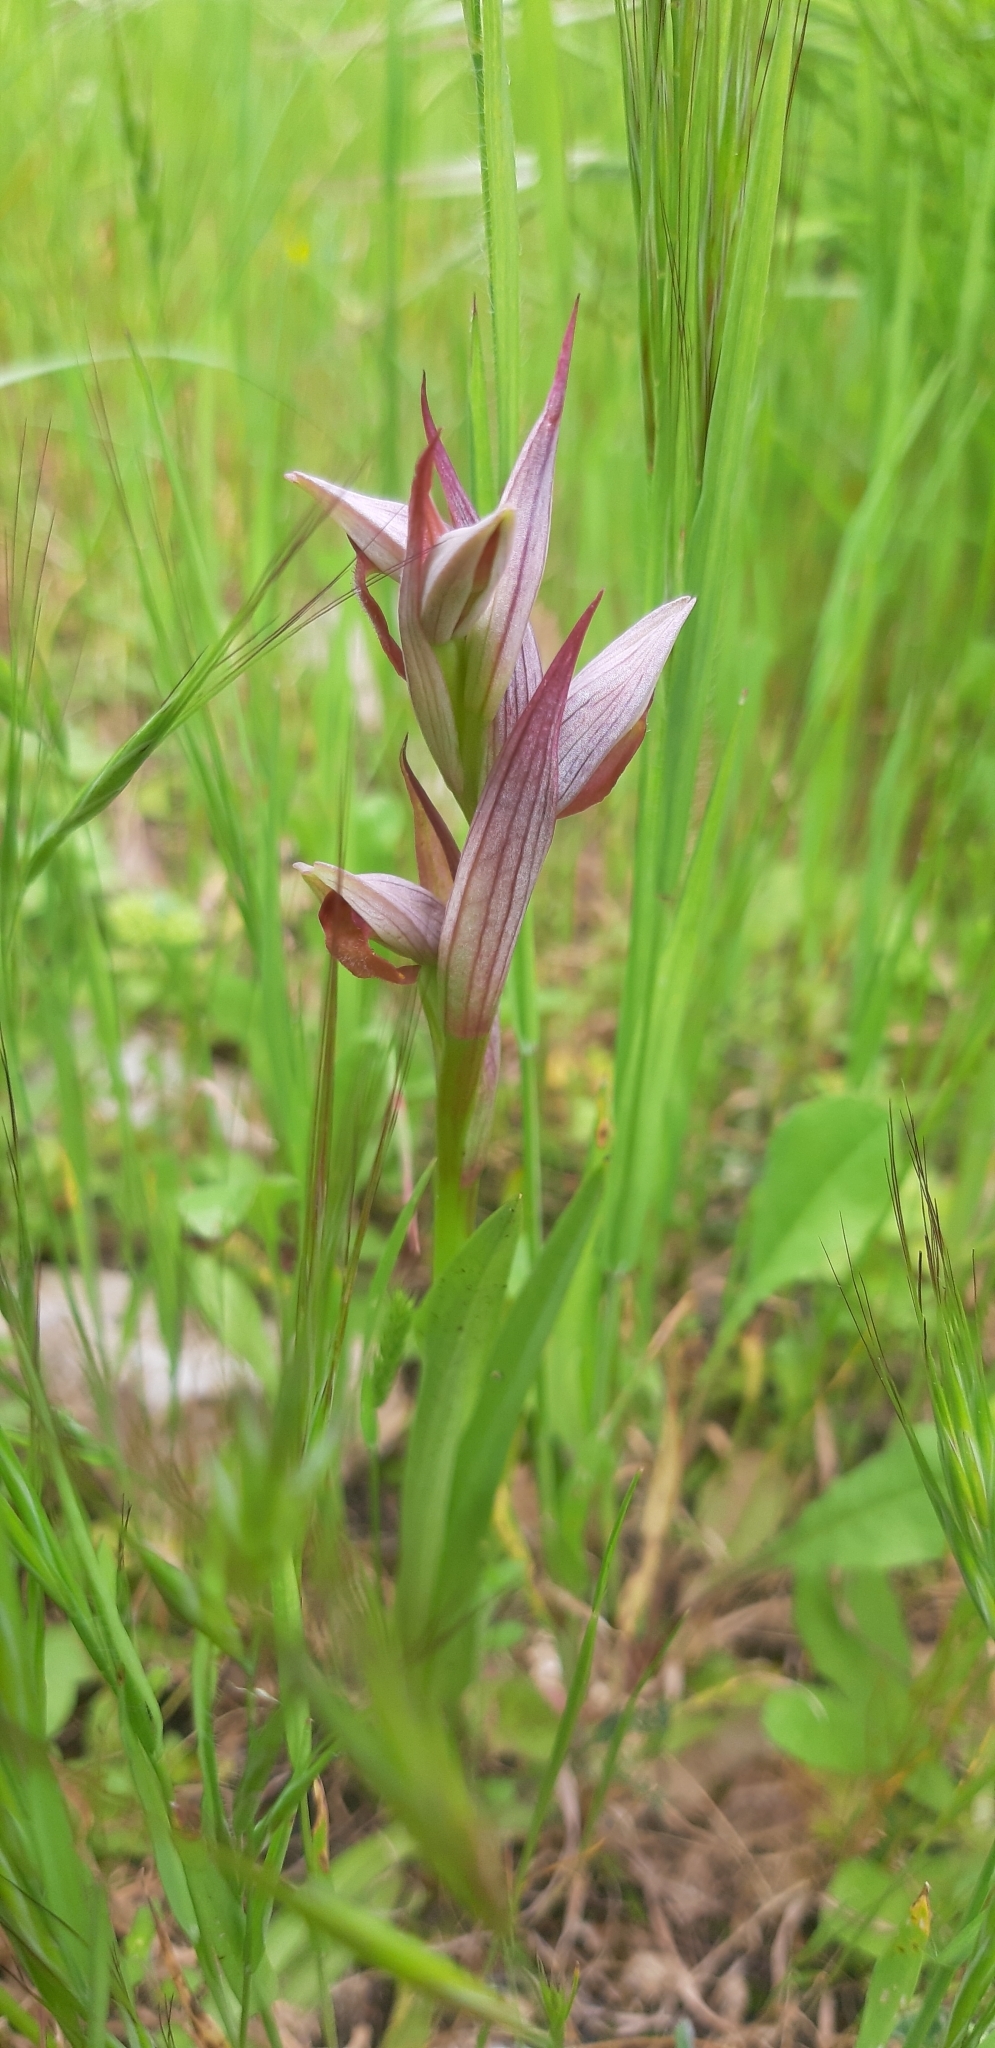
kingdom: Plantae
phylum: Tracheophyta
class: Liliopsida
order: Asparagales
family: Orchidaceae
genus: Serapias
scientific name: Serapias parviflora
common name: Small-flowered tongue-orchid
